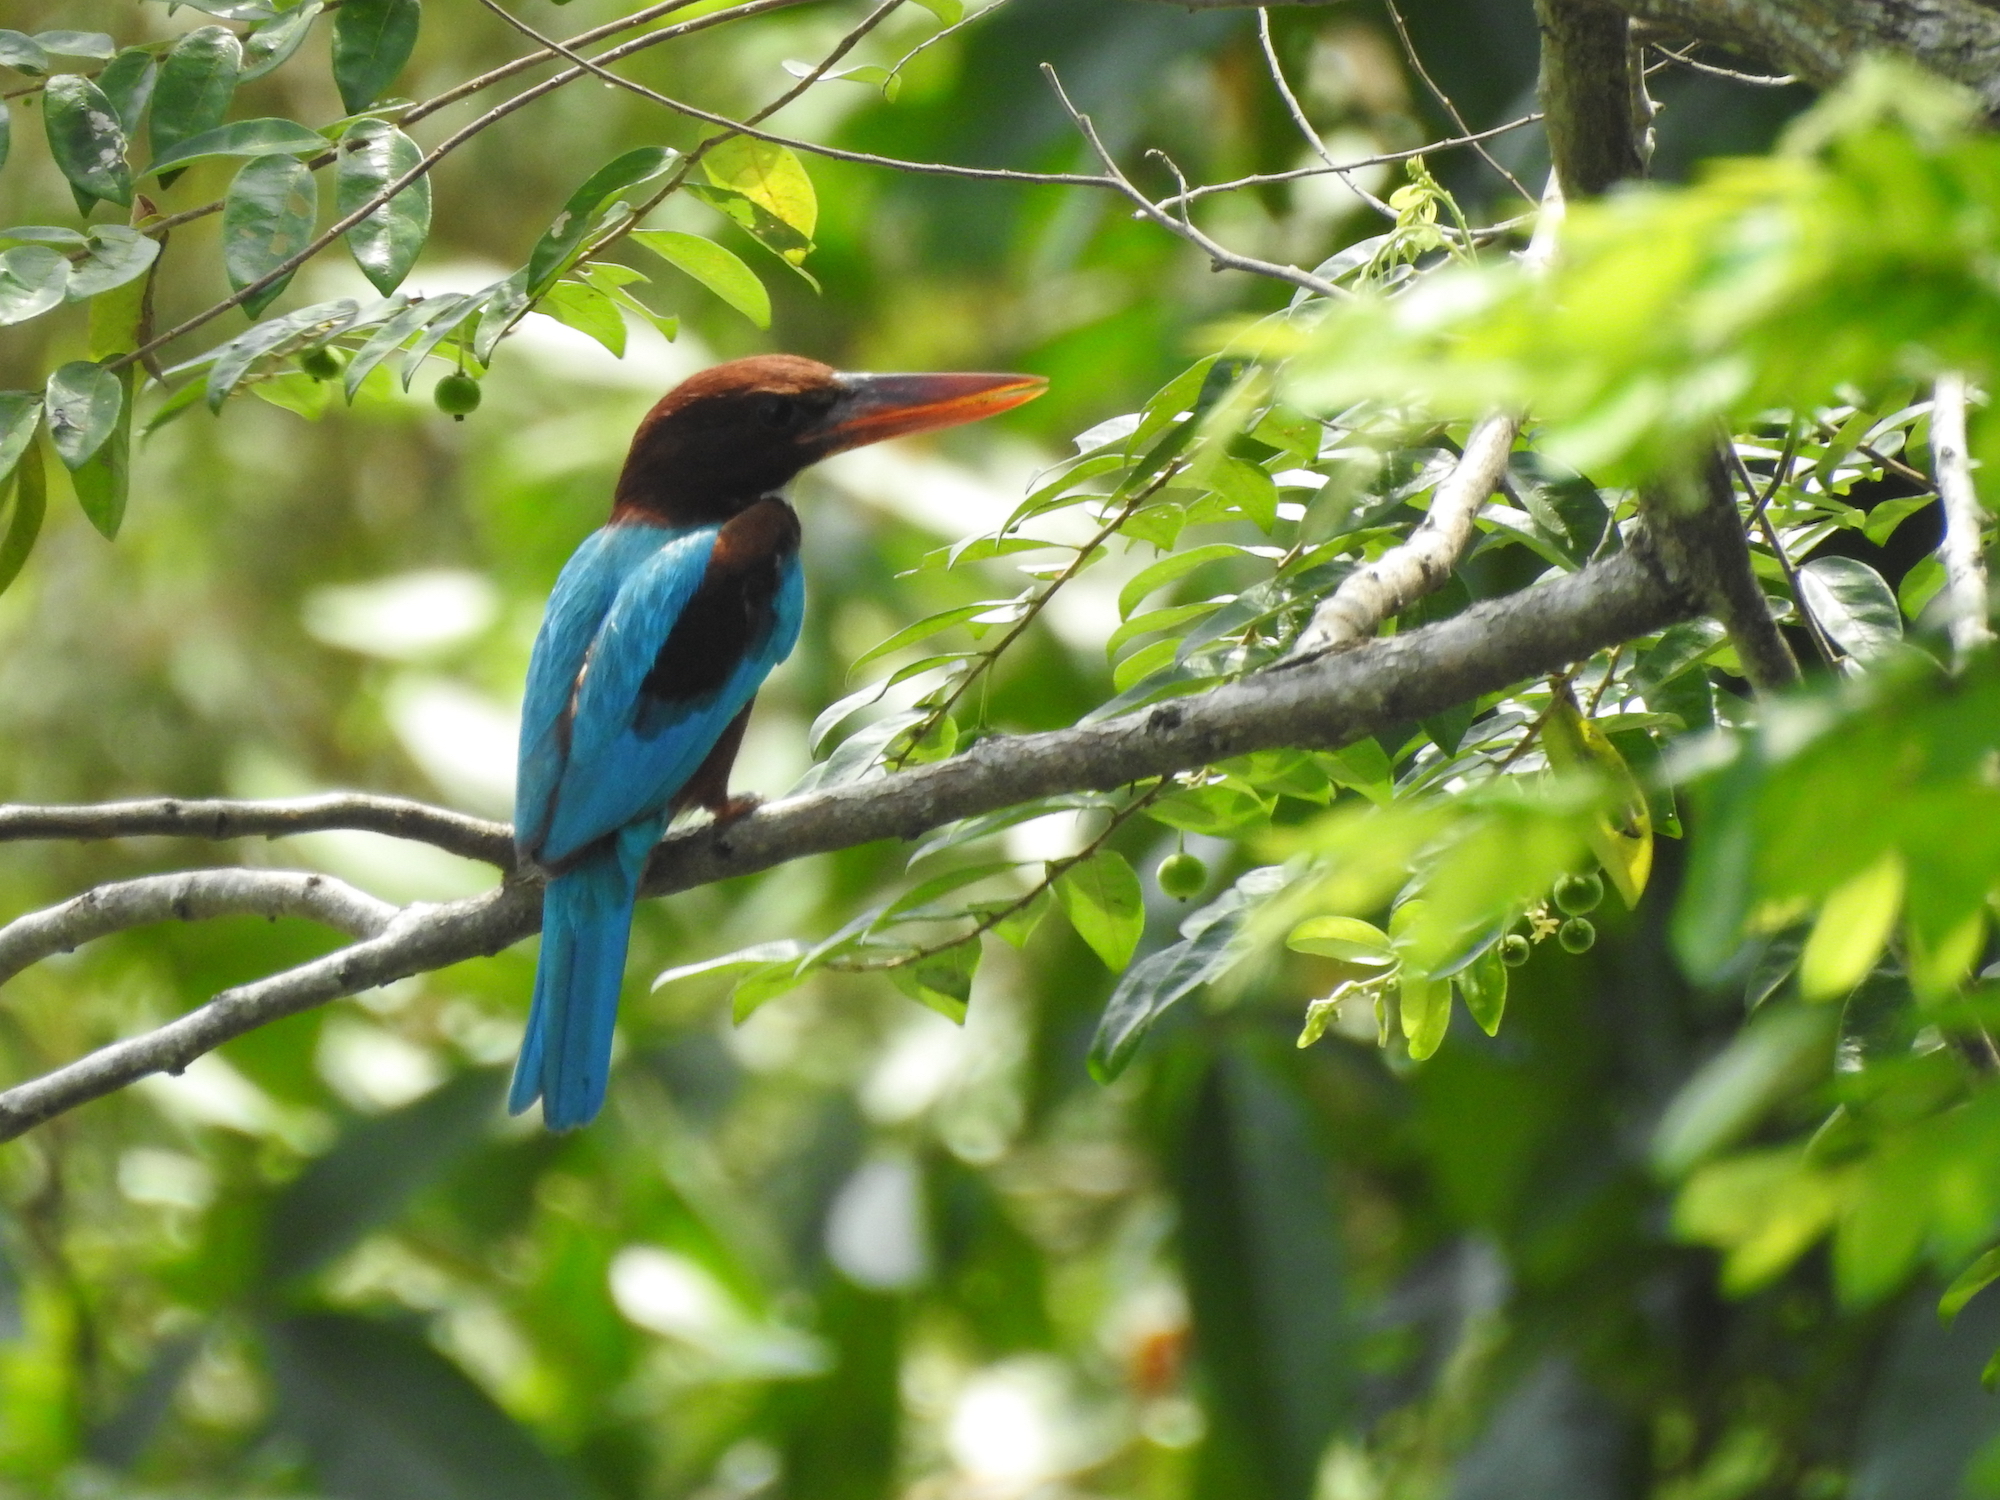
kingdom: Animalia
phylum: Chordata
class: Aves
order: Coraciiformes
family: Alcedinidae
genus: Halcyon
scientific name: Halcyon smyrnensis
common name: White-throated kingfisher
